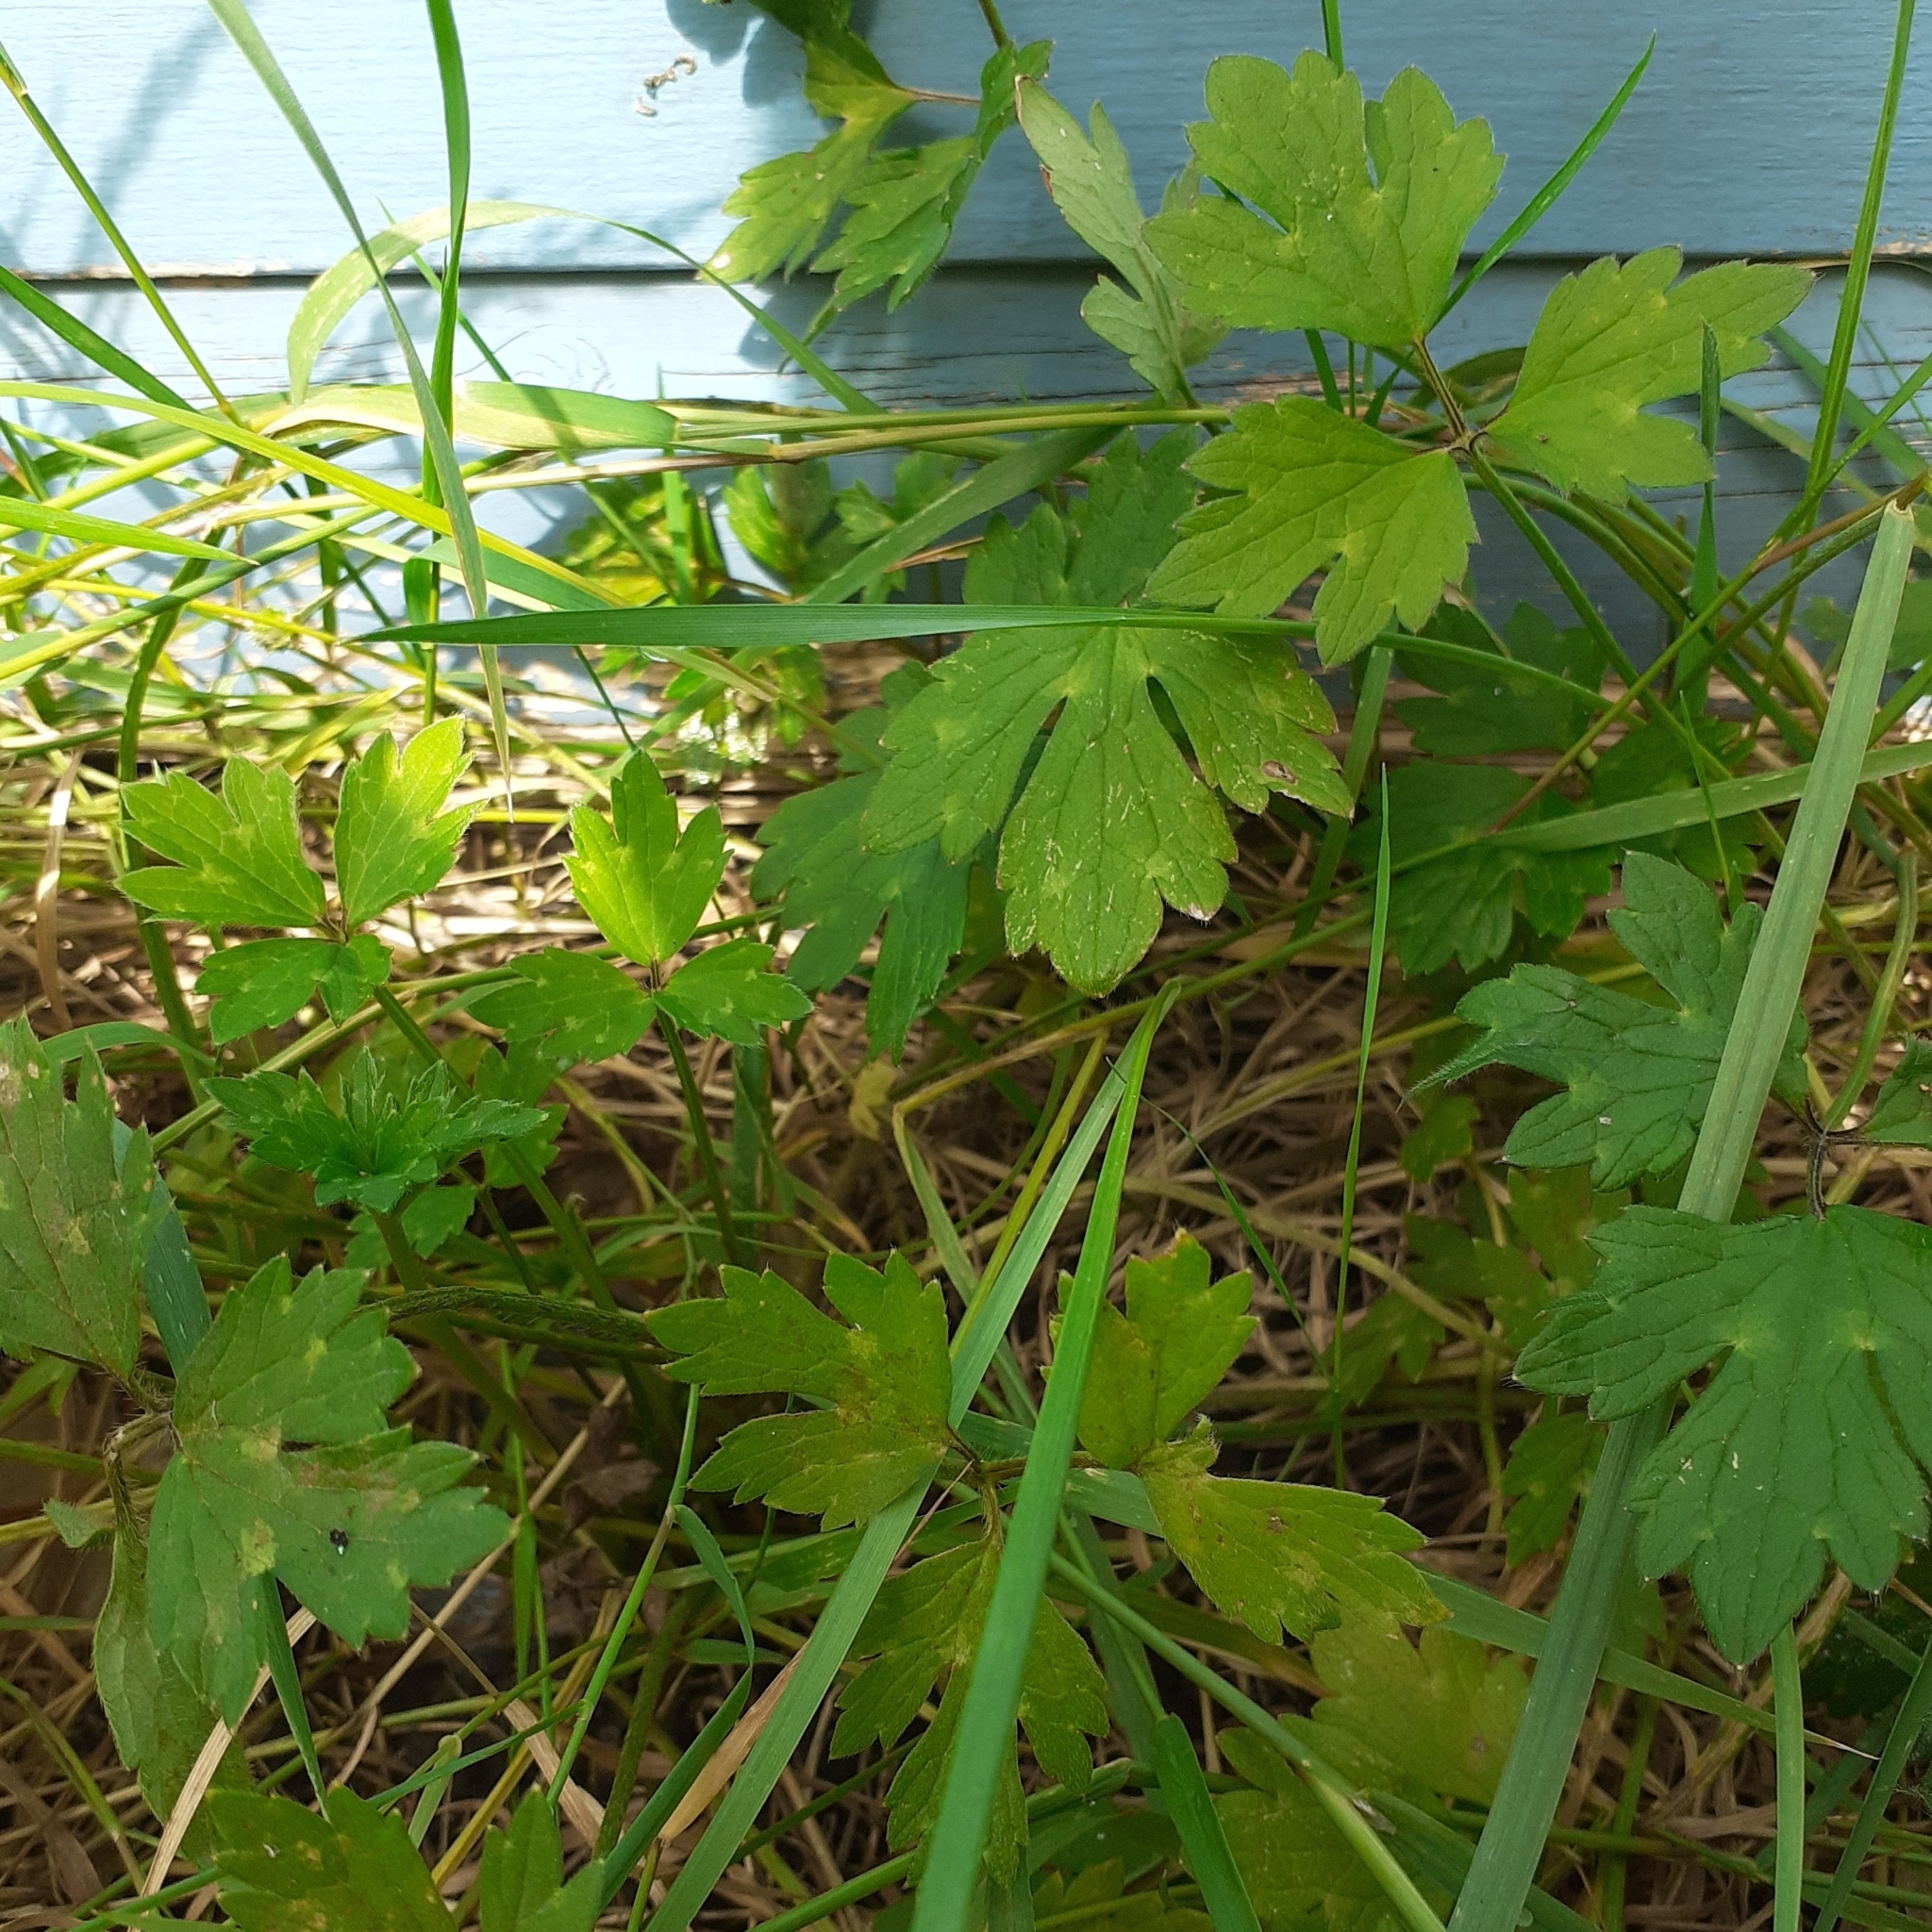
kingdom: Plantae
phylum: Tracheophyta
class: Magnoliopsida
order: Ranunculales
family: Ranunculaceae
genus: Ranunculus
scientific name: Ranunculus repens
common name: Creeping buttercup
